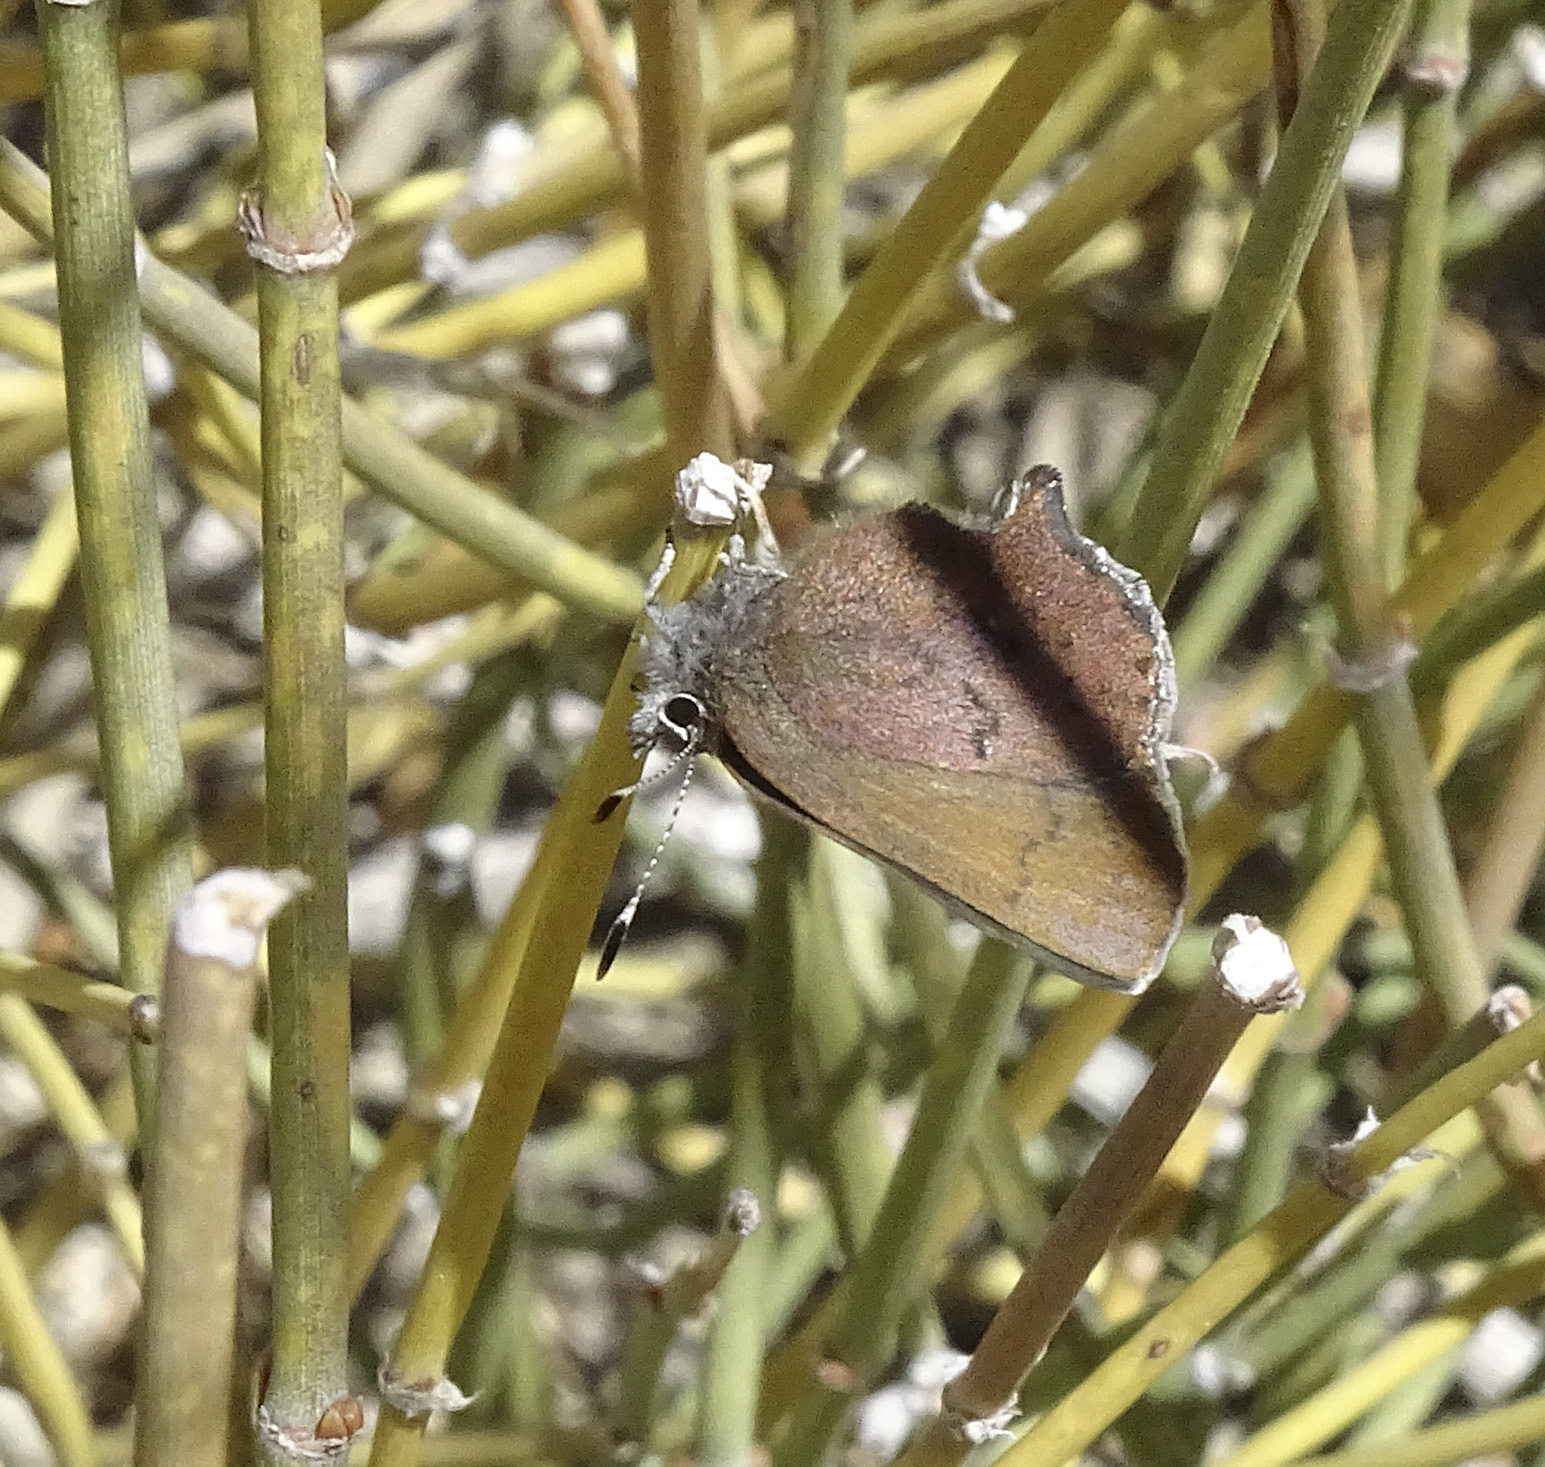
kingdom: Animalia
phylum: Arthropoda
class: Insecta
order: Lepidoptera
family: Lycaenidae
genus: Incisalia
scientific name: Incisalia irioides
